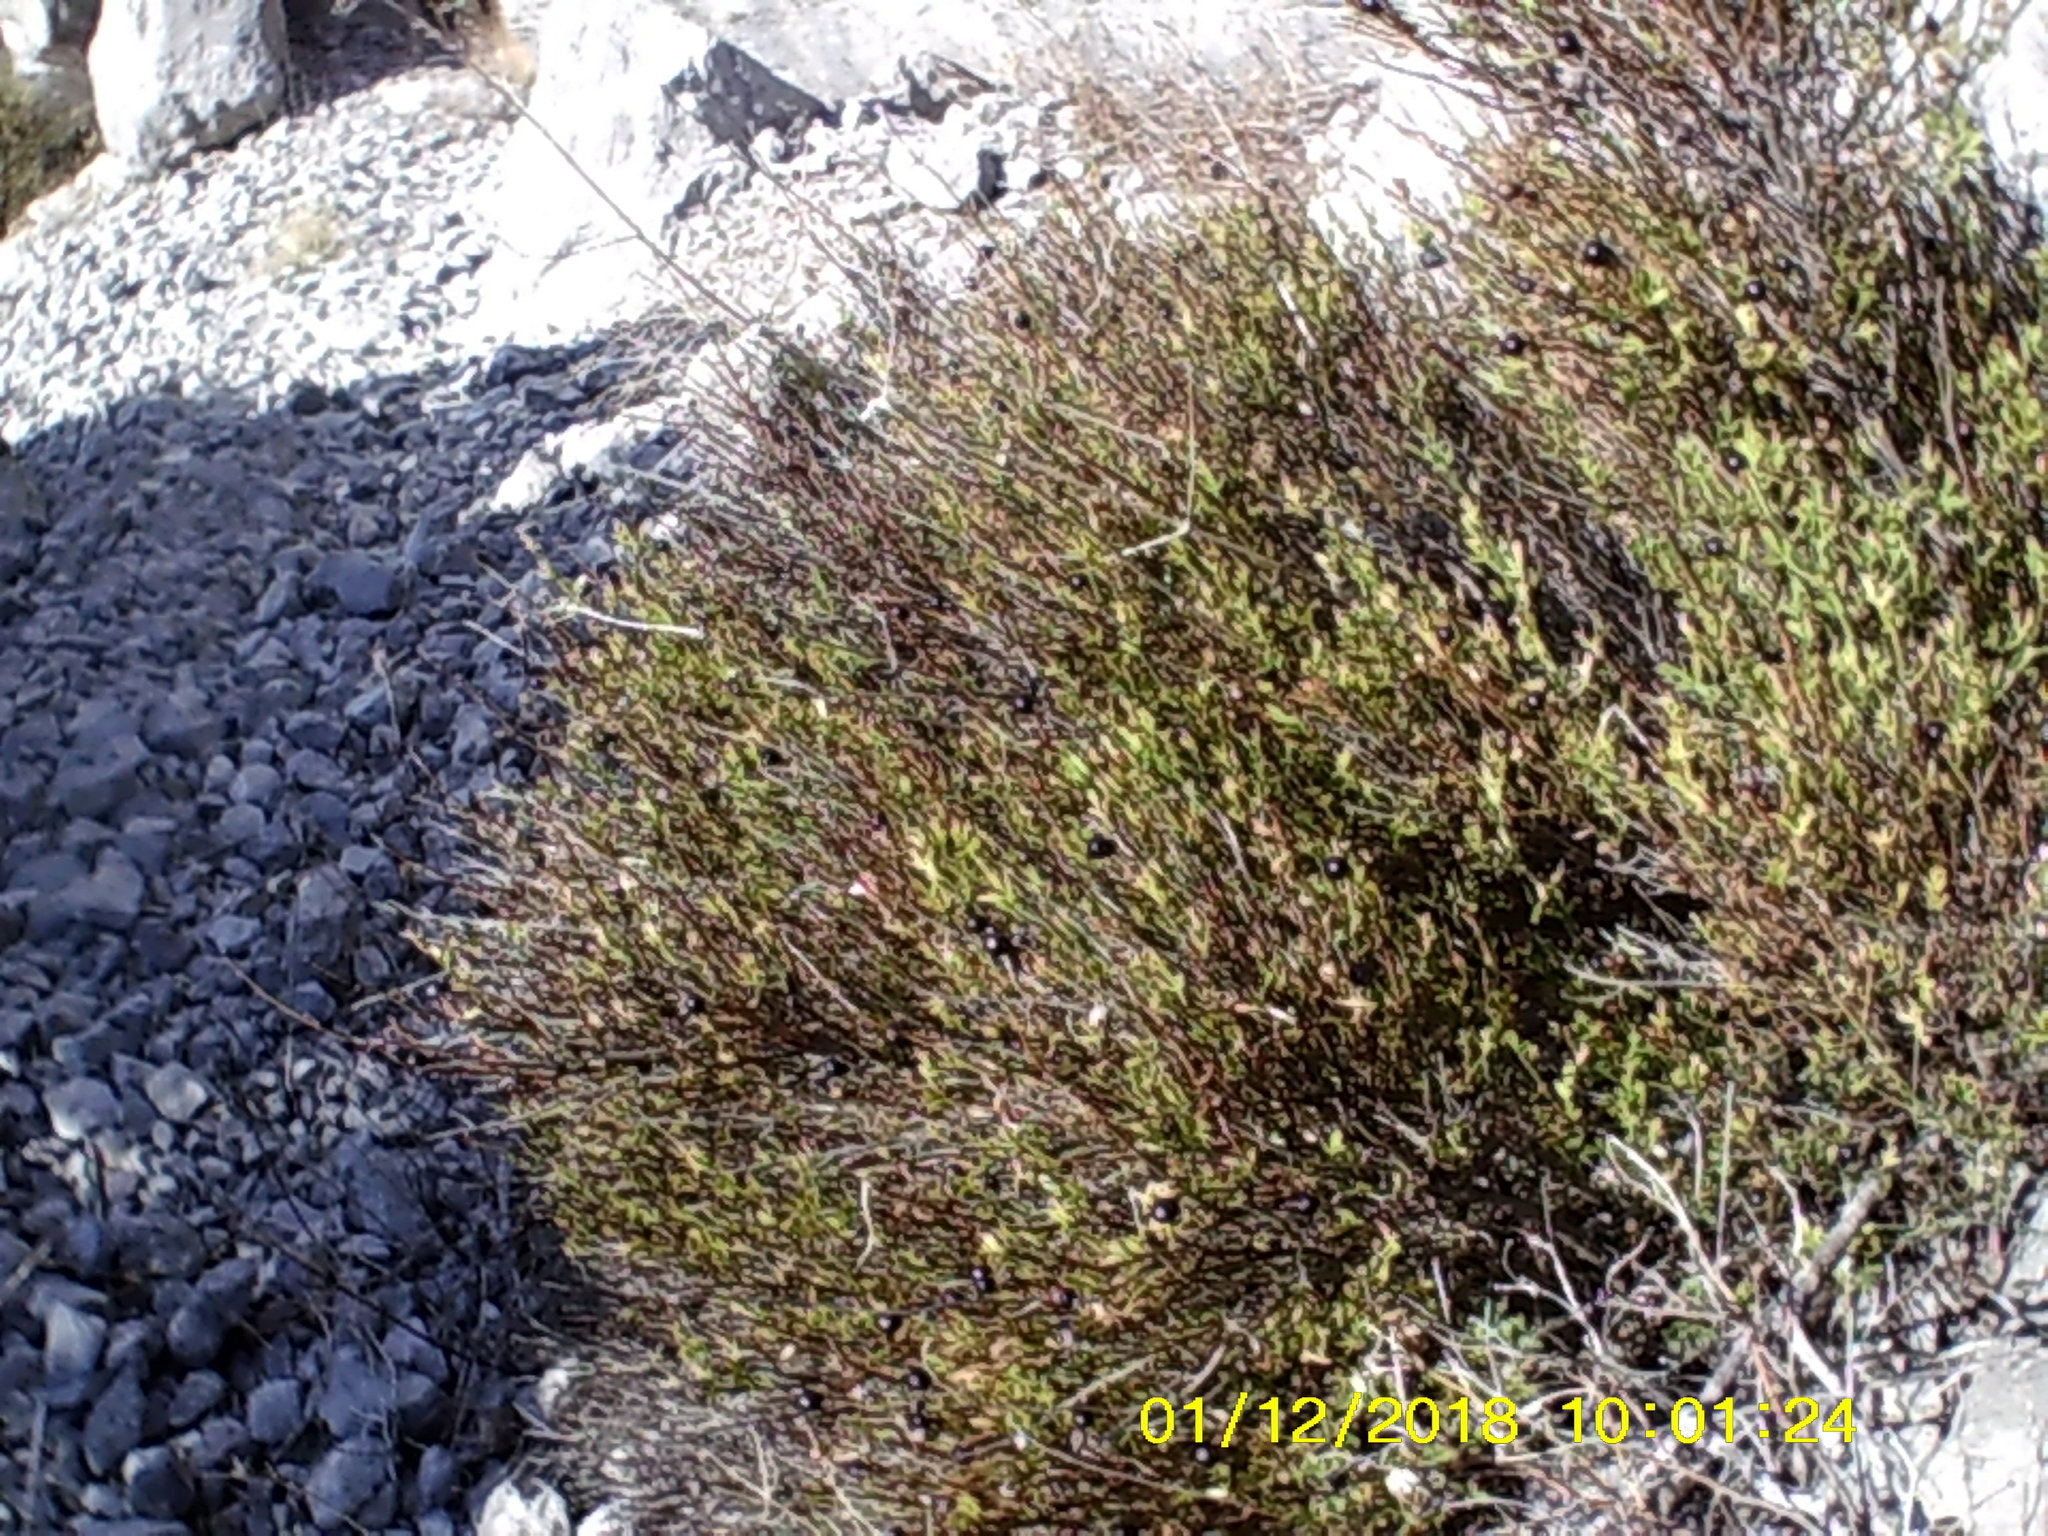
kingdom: Plantae
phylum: Tracheophyta
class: Magnoliopsida
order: Lamiales
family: Oleaceae
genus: Chrysojasminum
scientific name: Chrysojasminum fruticans
